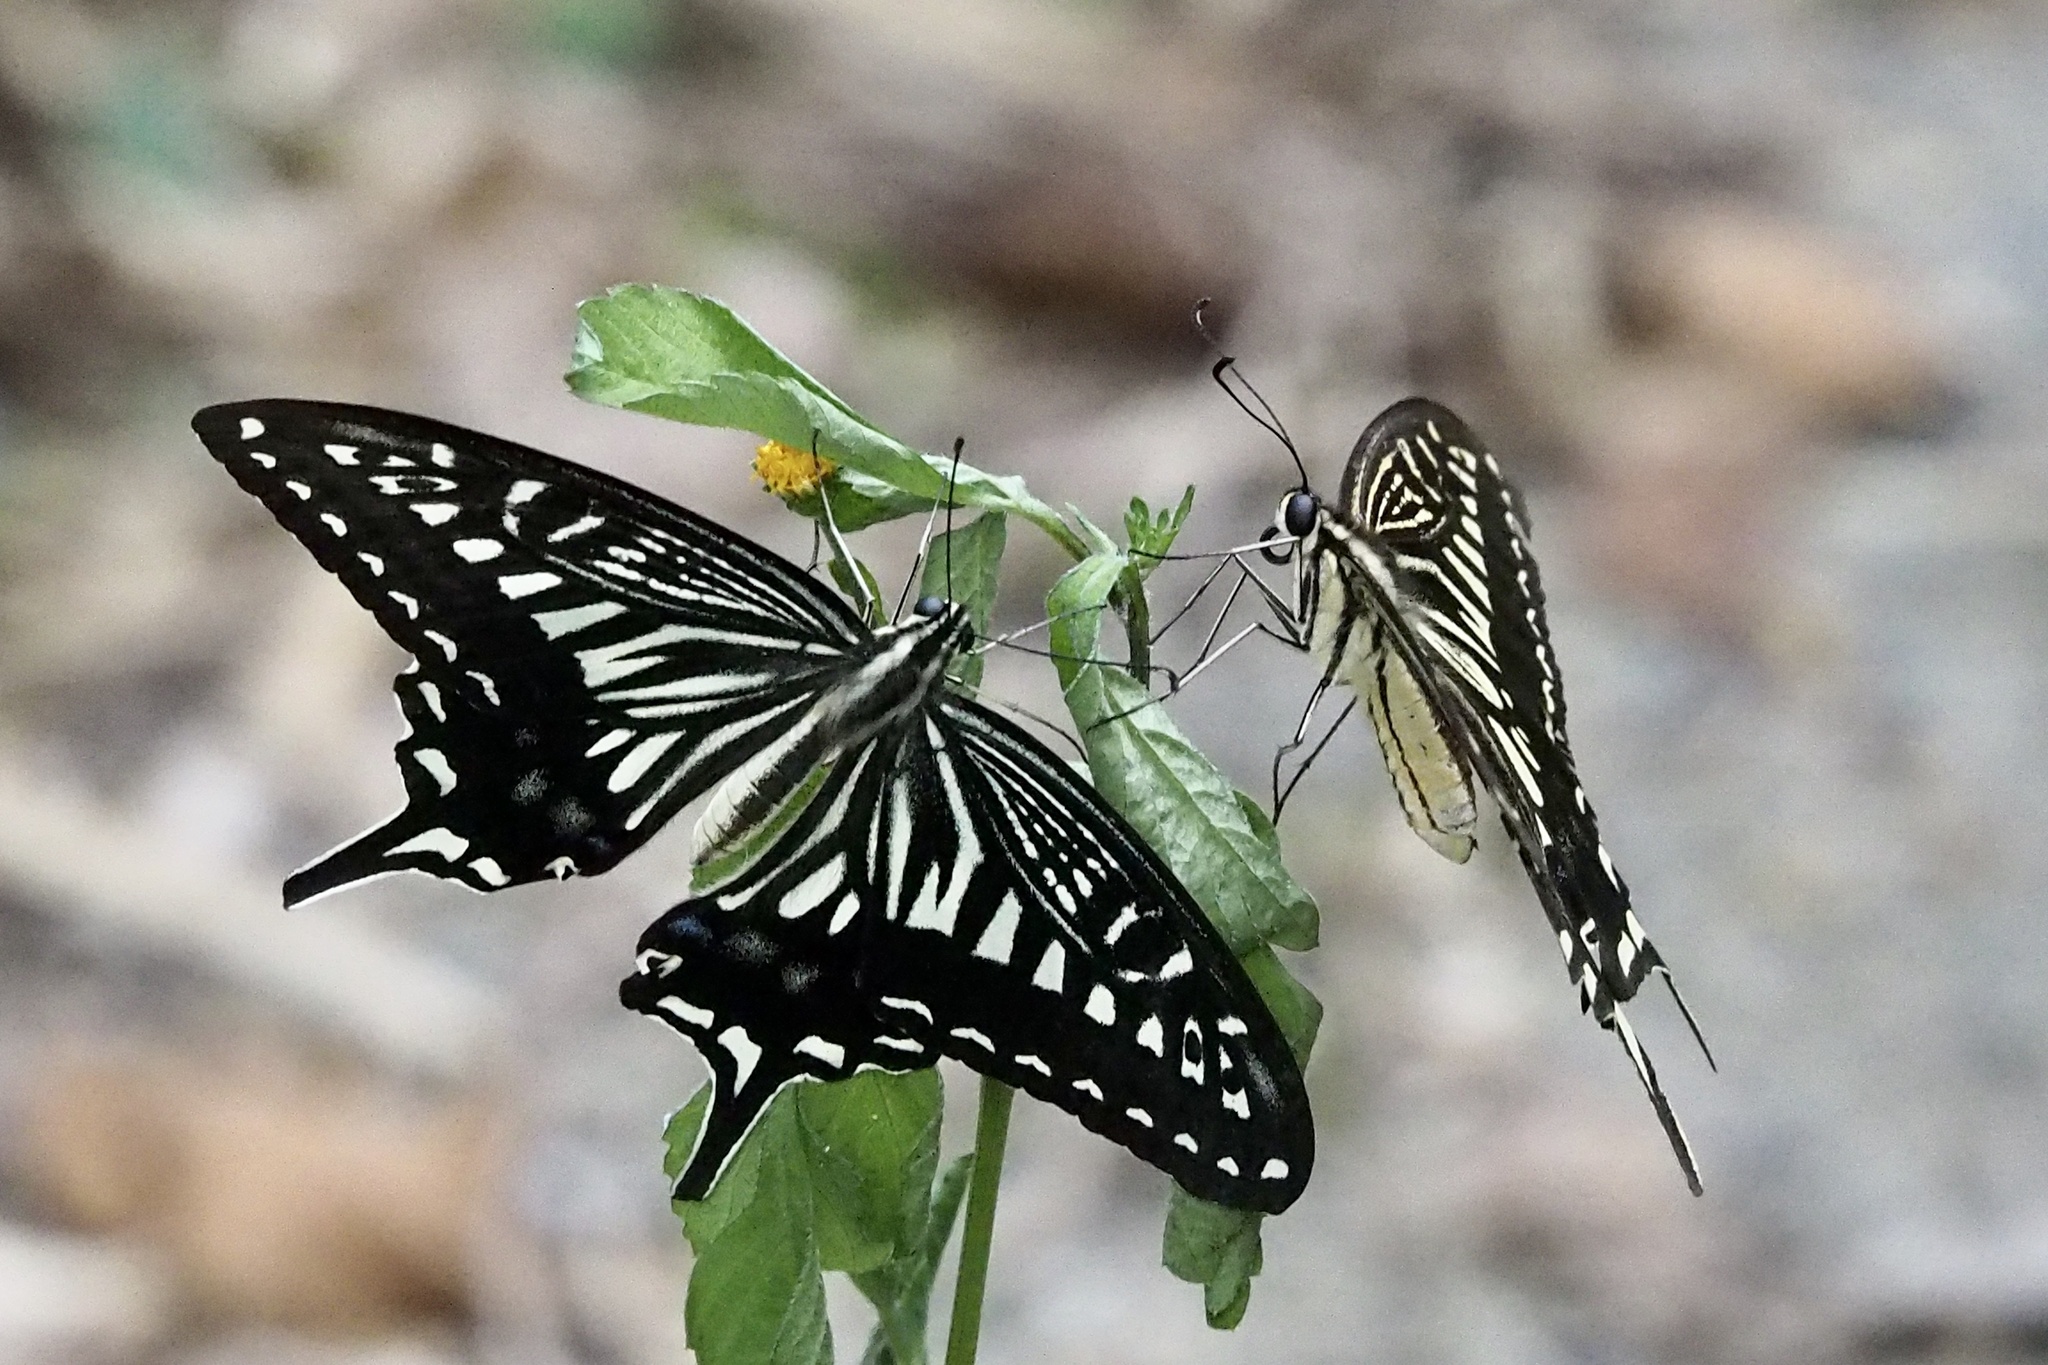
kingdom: Animalia
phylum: Arthropoda
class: Insecta
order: Lepidoptera
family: Papilionidae
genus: Papilio
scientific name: Papilio xuthus
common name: Asian swallowtail
